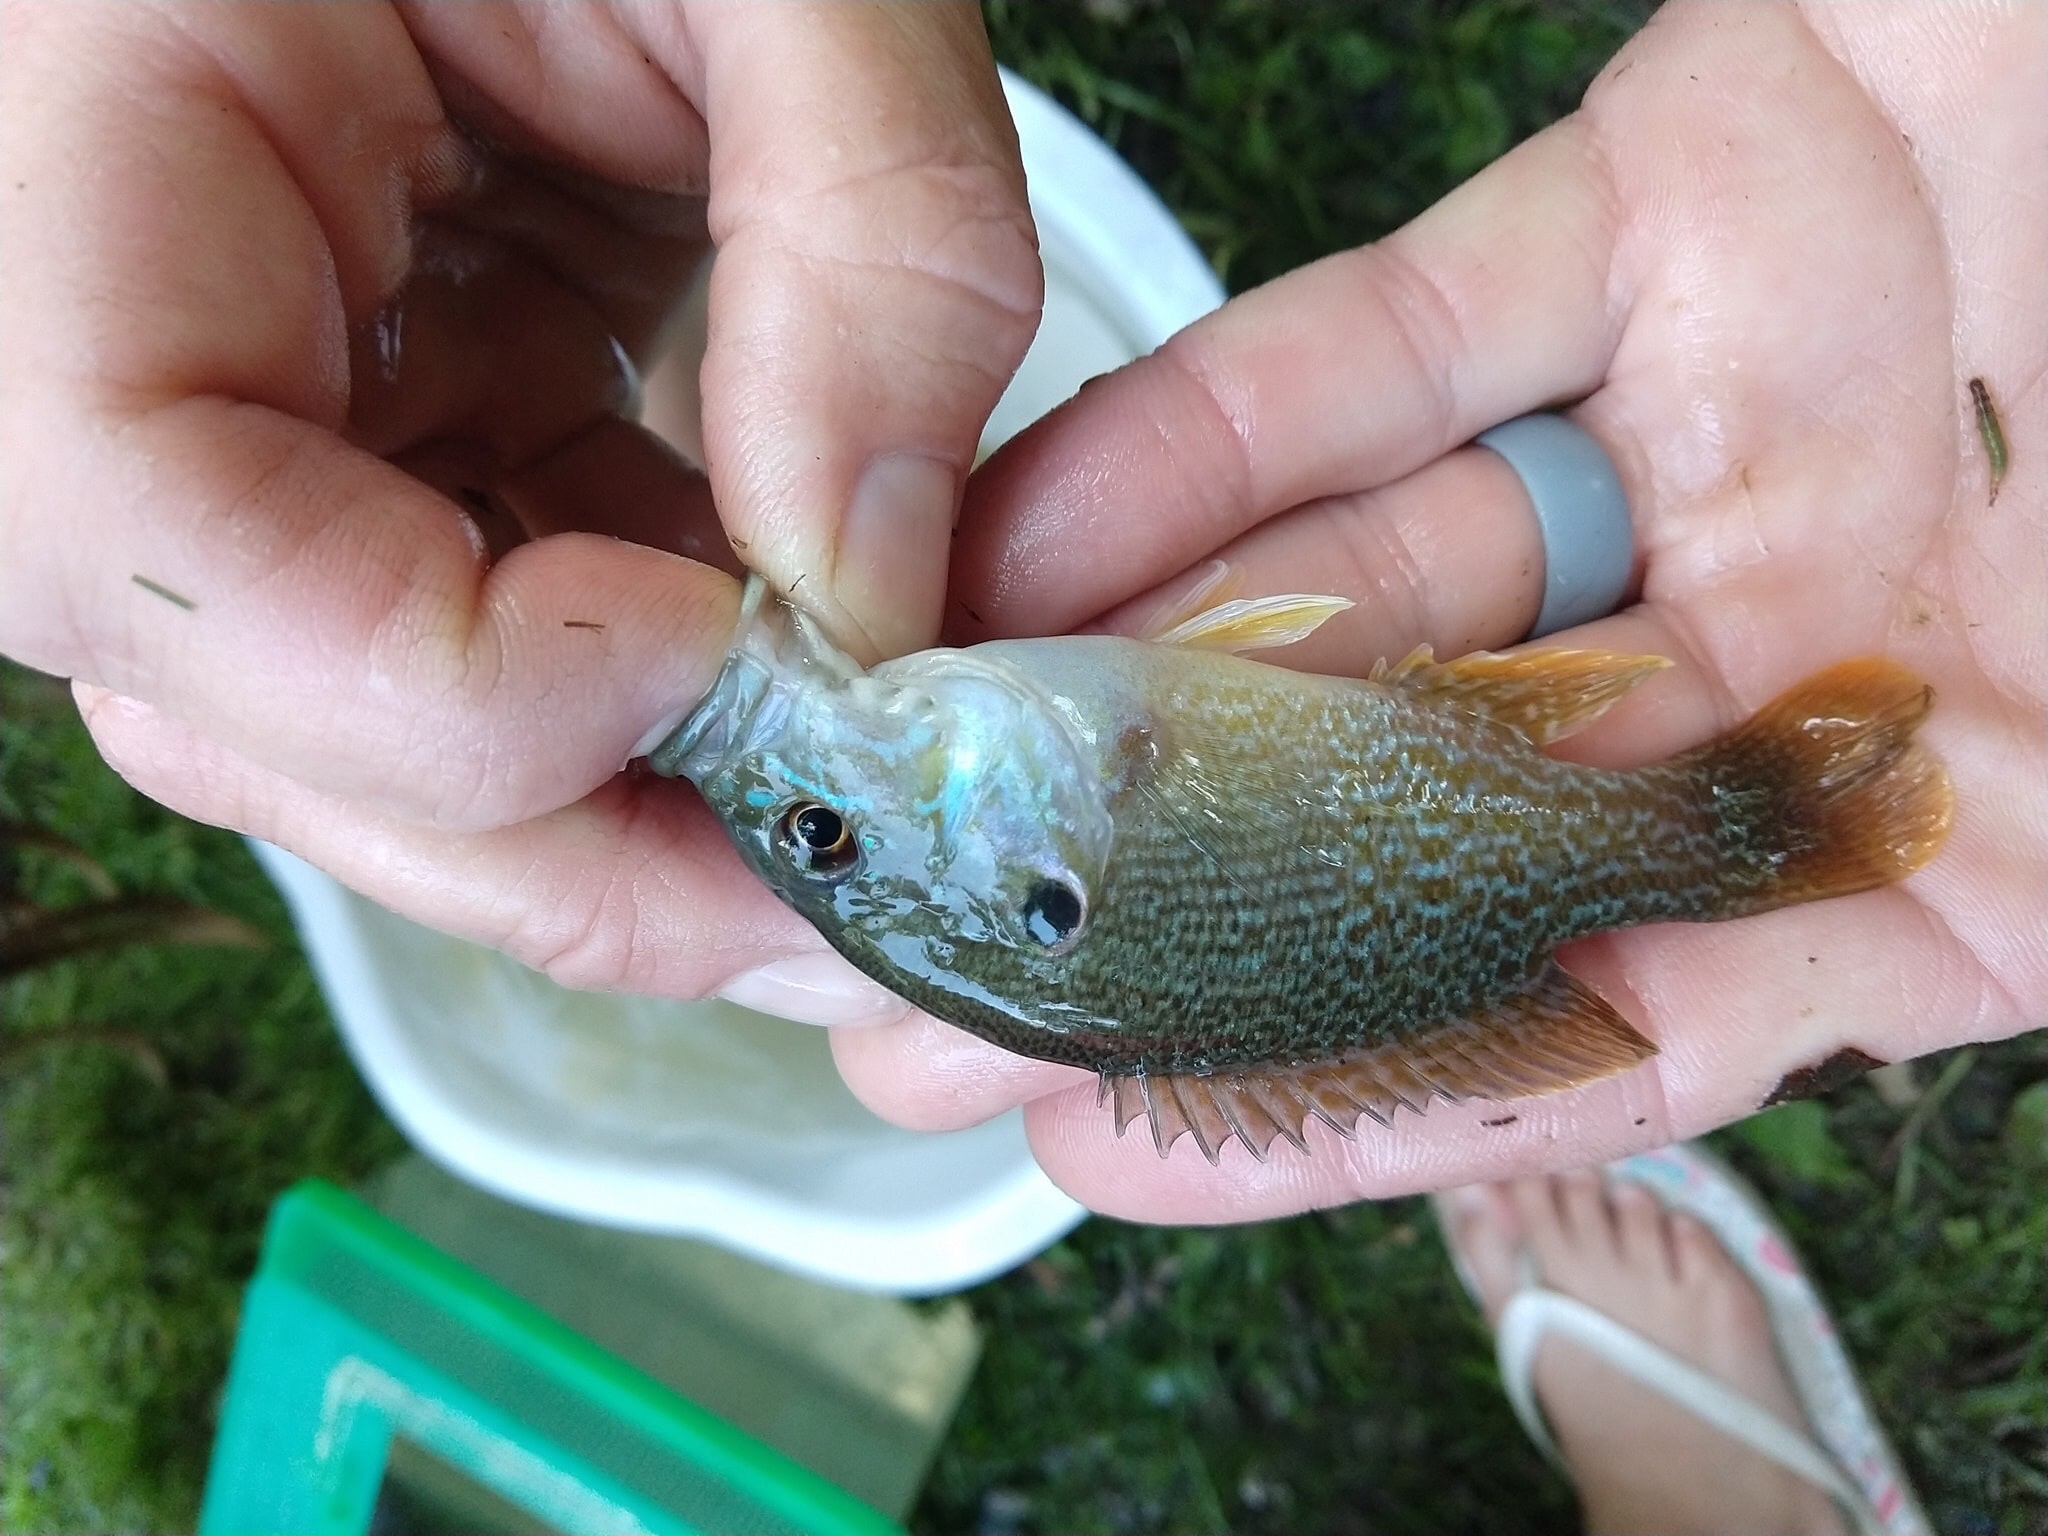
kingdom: Animalia
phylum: Chordata
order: Perciformes
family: Centrarchidae
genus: Lepomis
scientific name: Lepomis cyanellus
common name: Green sunfish
